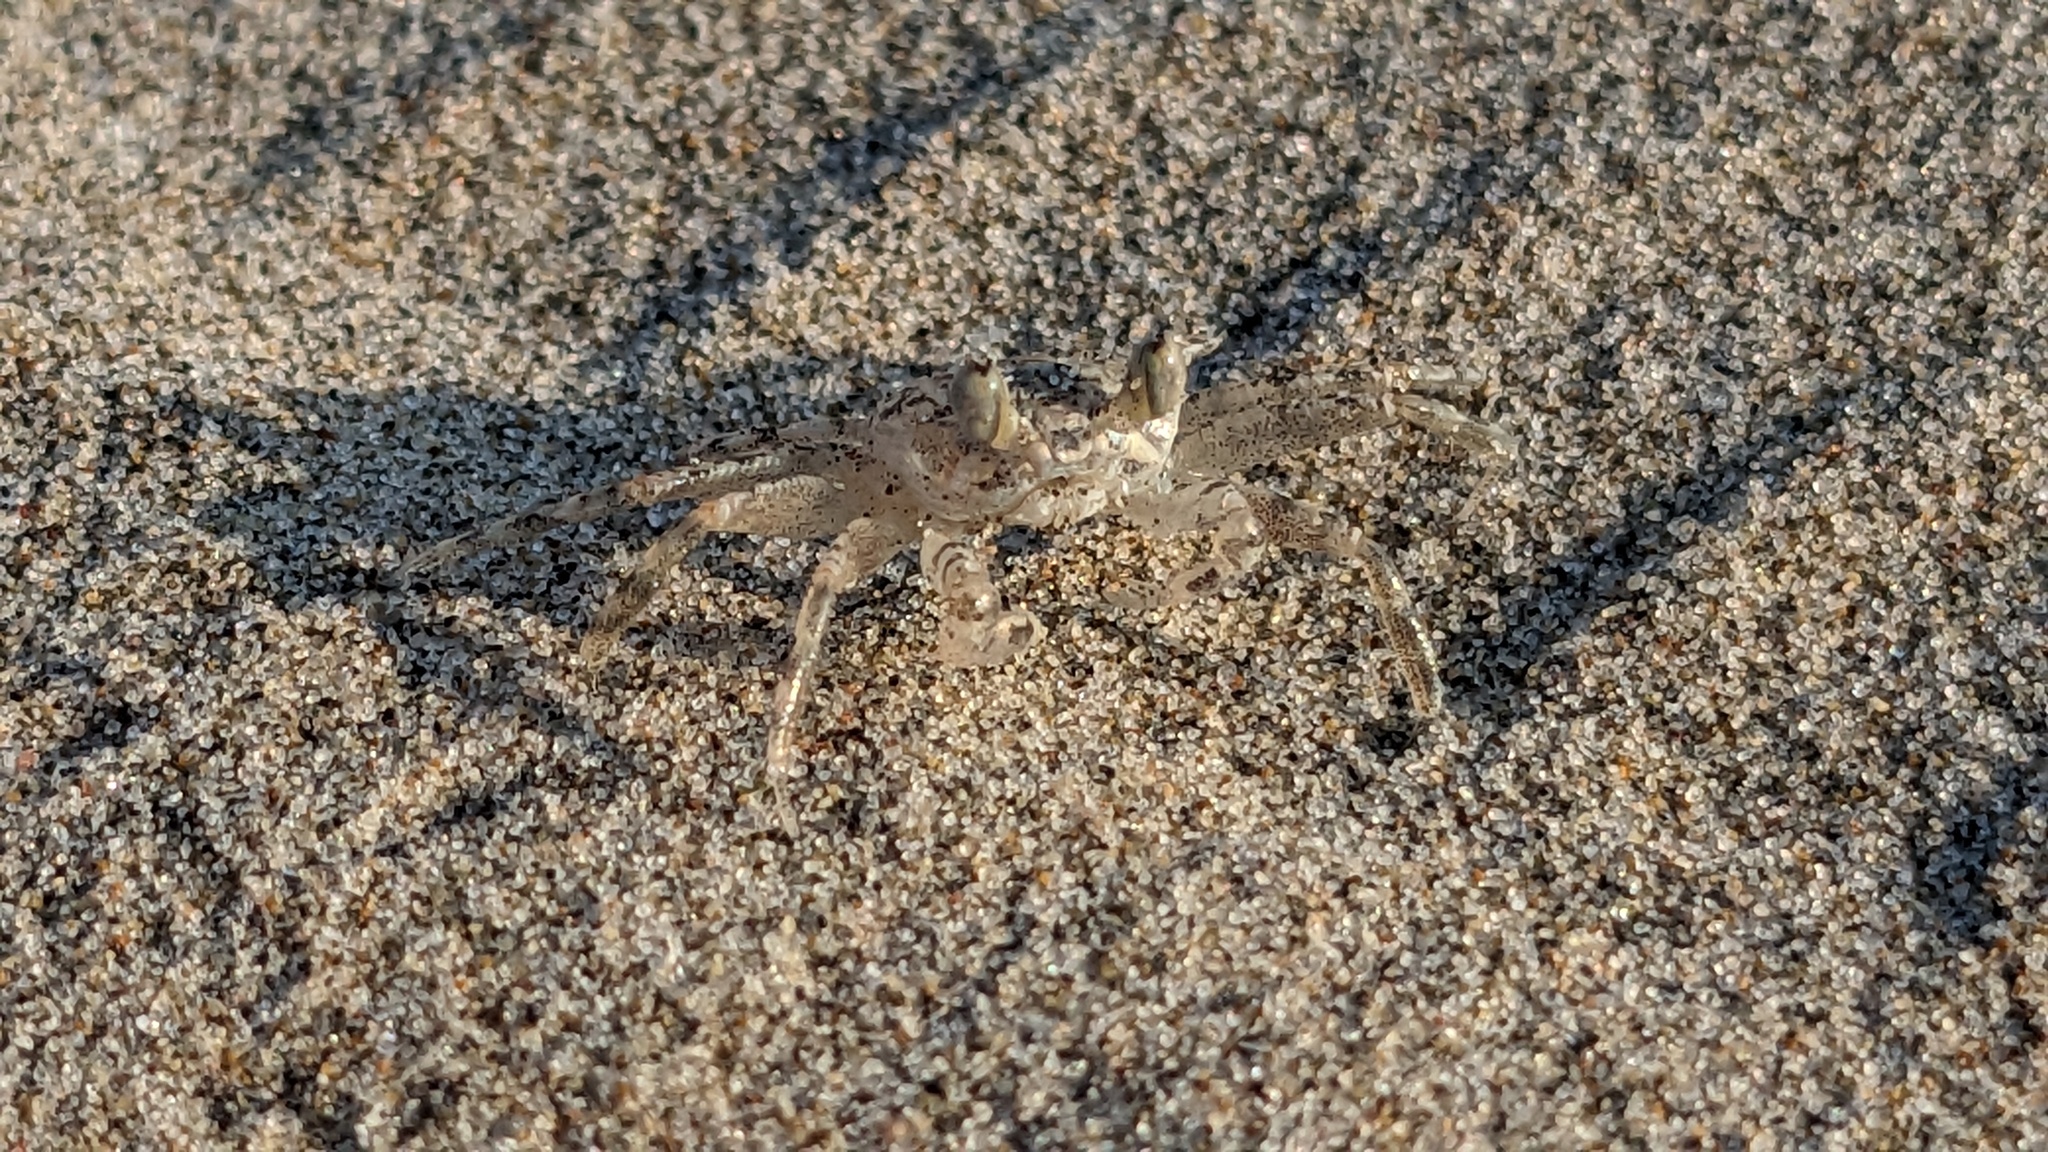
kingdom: Animalia
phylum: Arthropoda
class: Malacostraca
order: Decapoda
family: Ocypodidae
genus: Ocypode
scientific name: Ocypode quadrata
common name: Ghost crab
